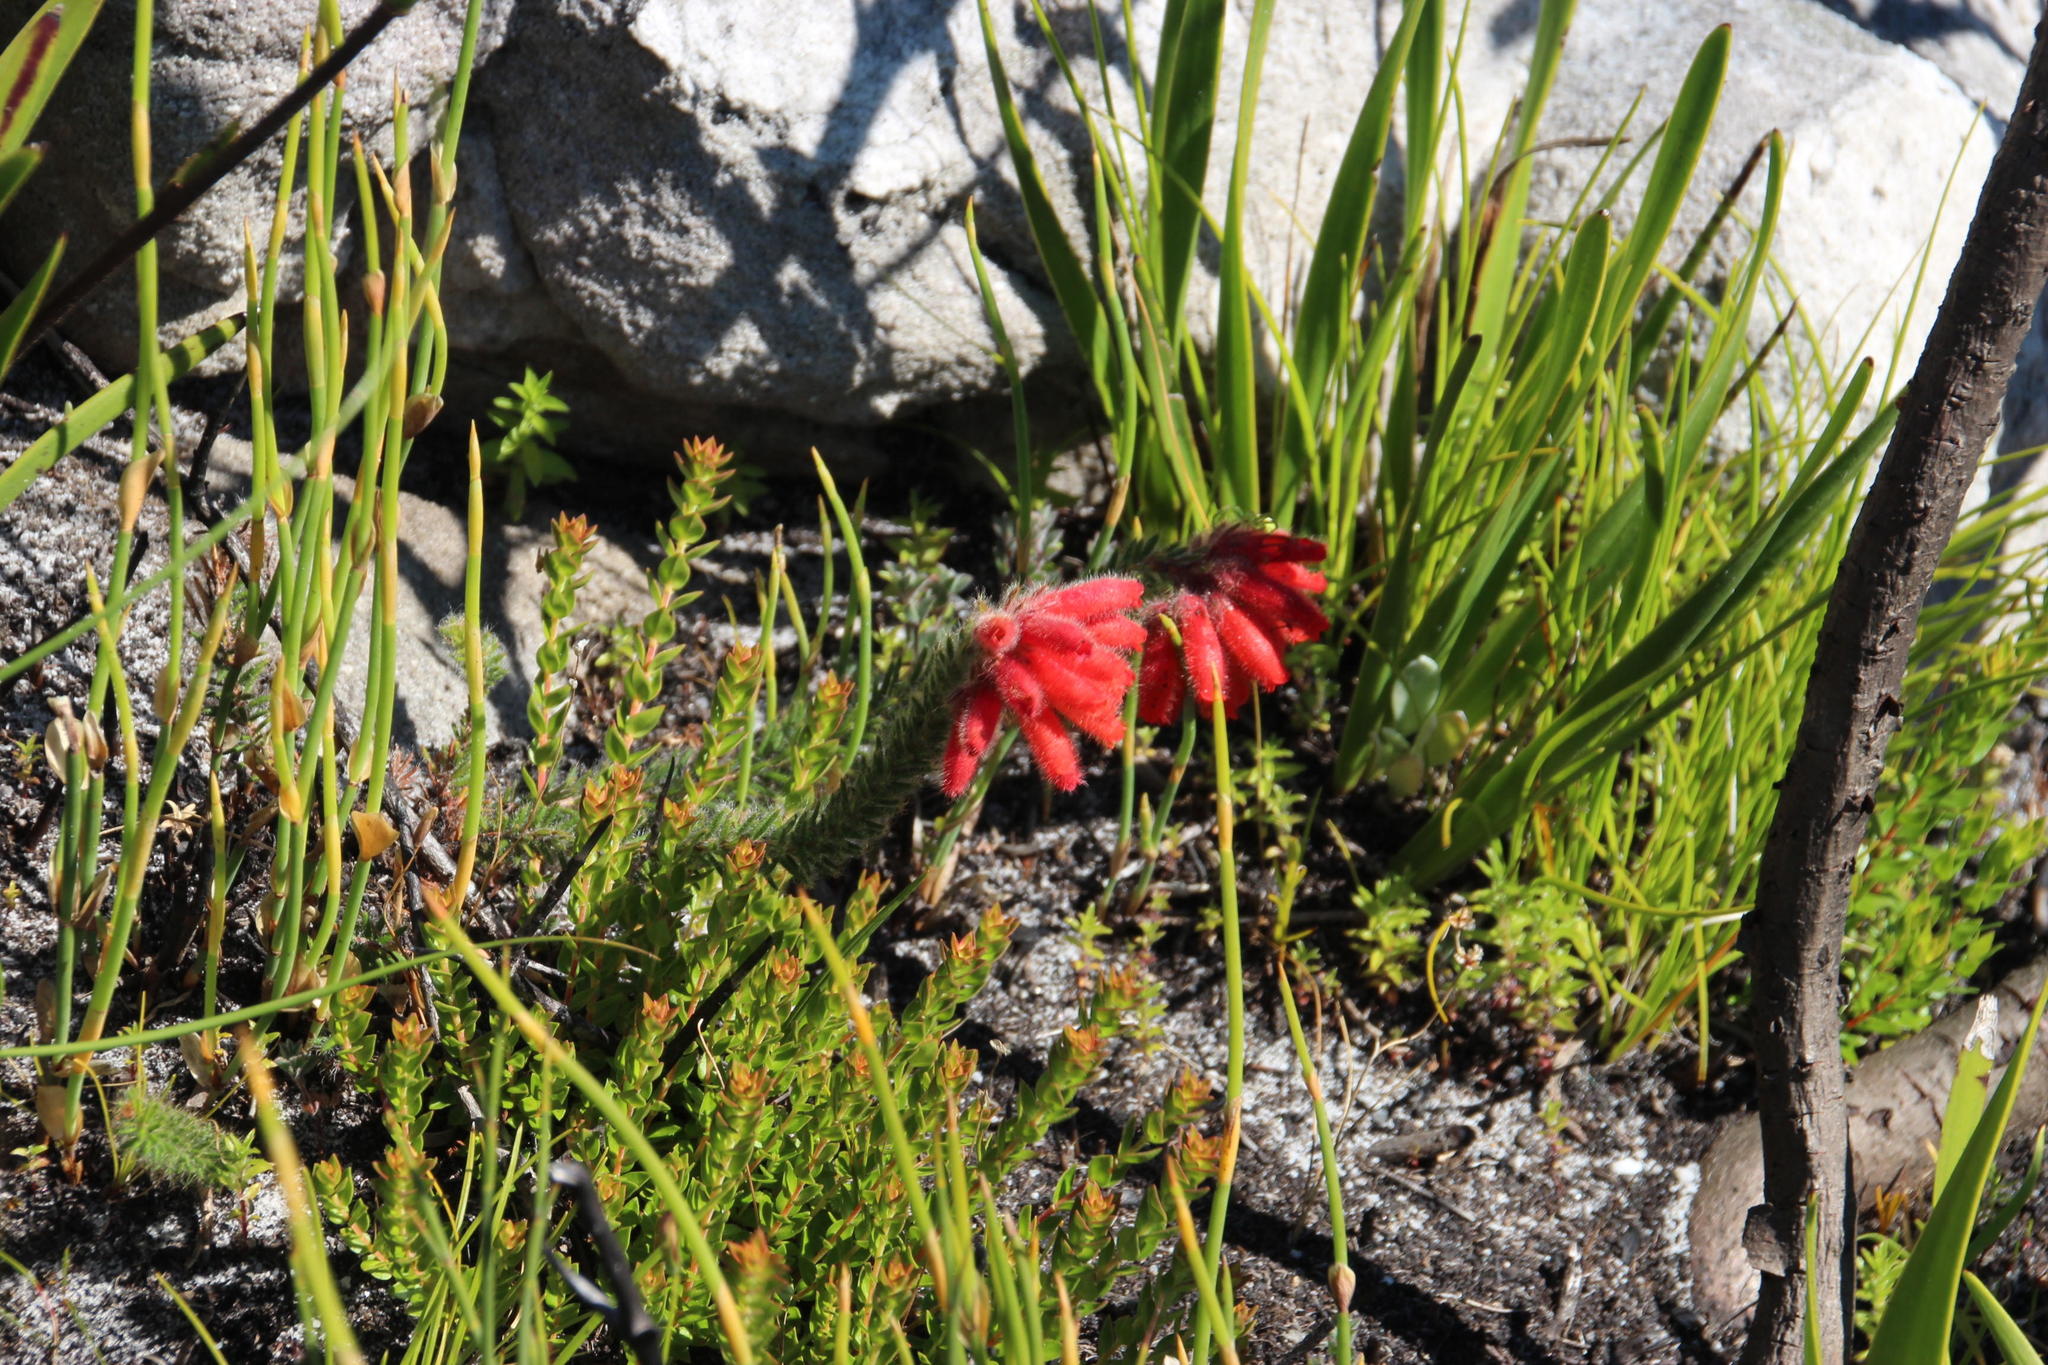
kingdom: Plantae
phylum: Tracheophyta
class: Magnoliopsida
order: Ericales
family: Ericaceae
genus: Erica
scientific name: Erica cerinthoides
